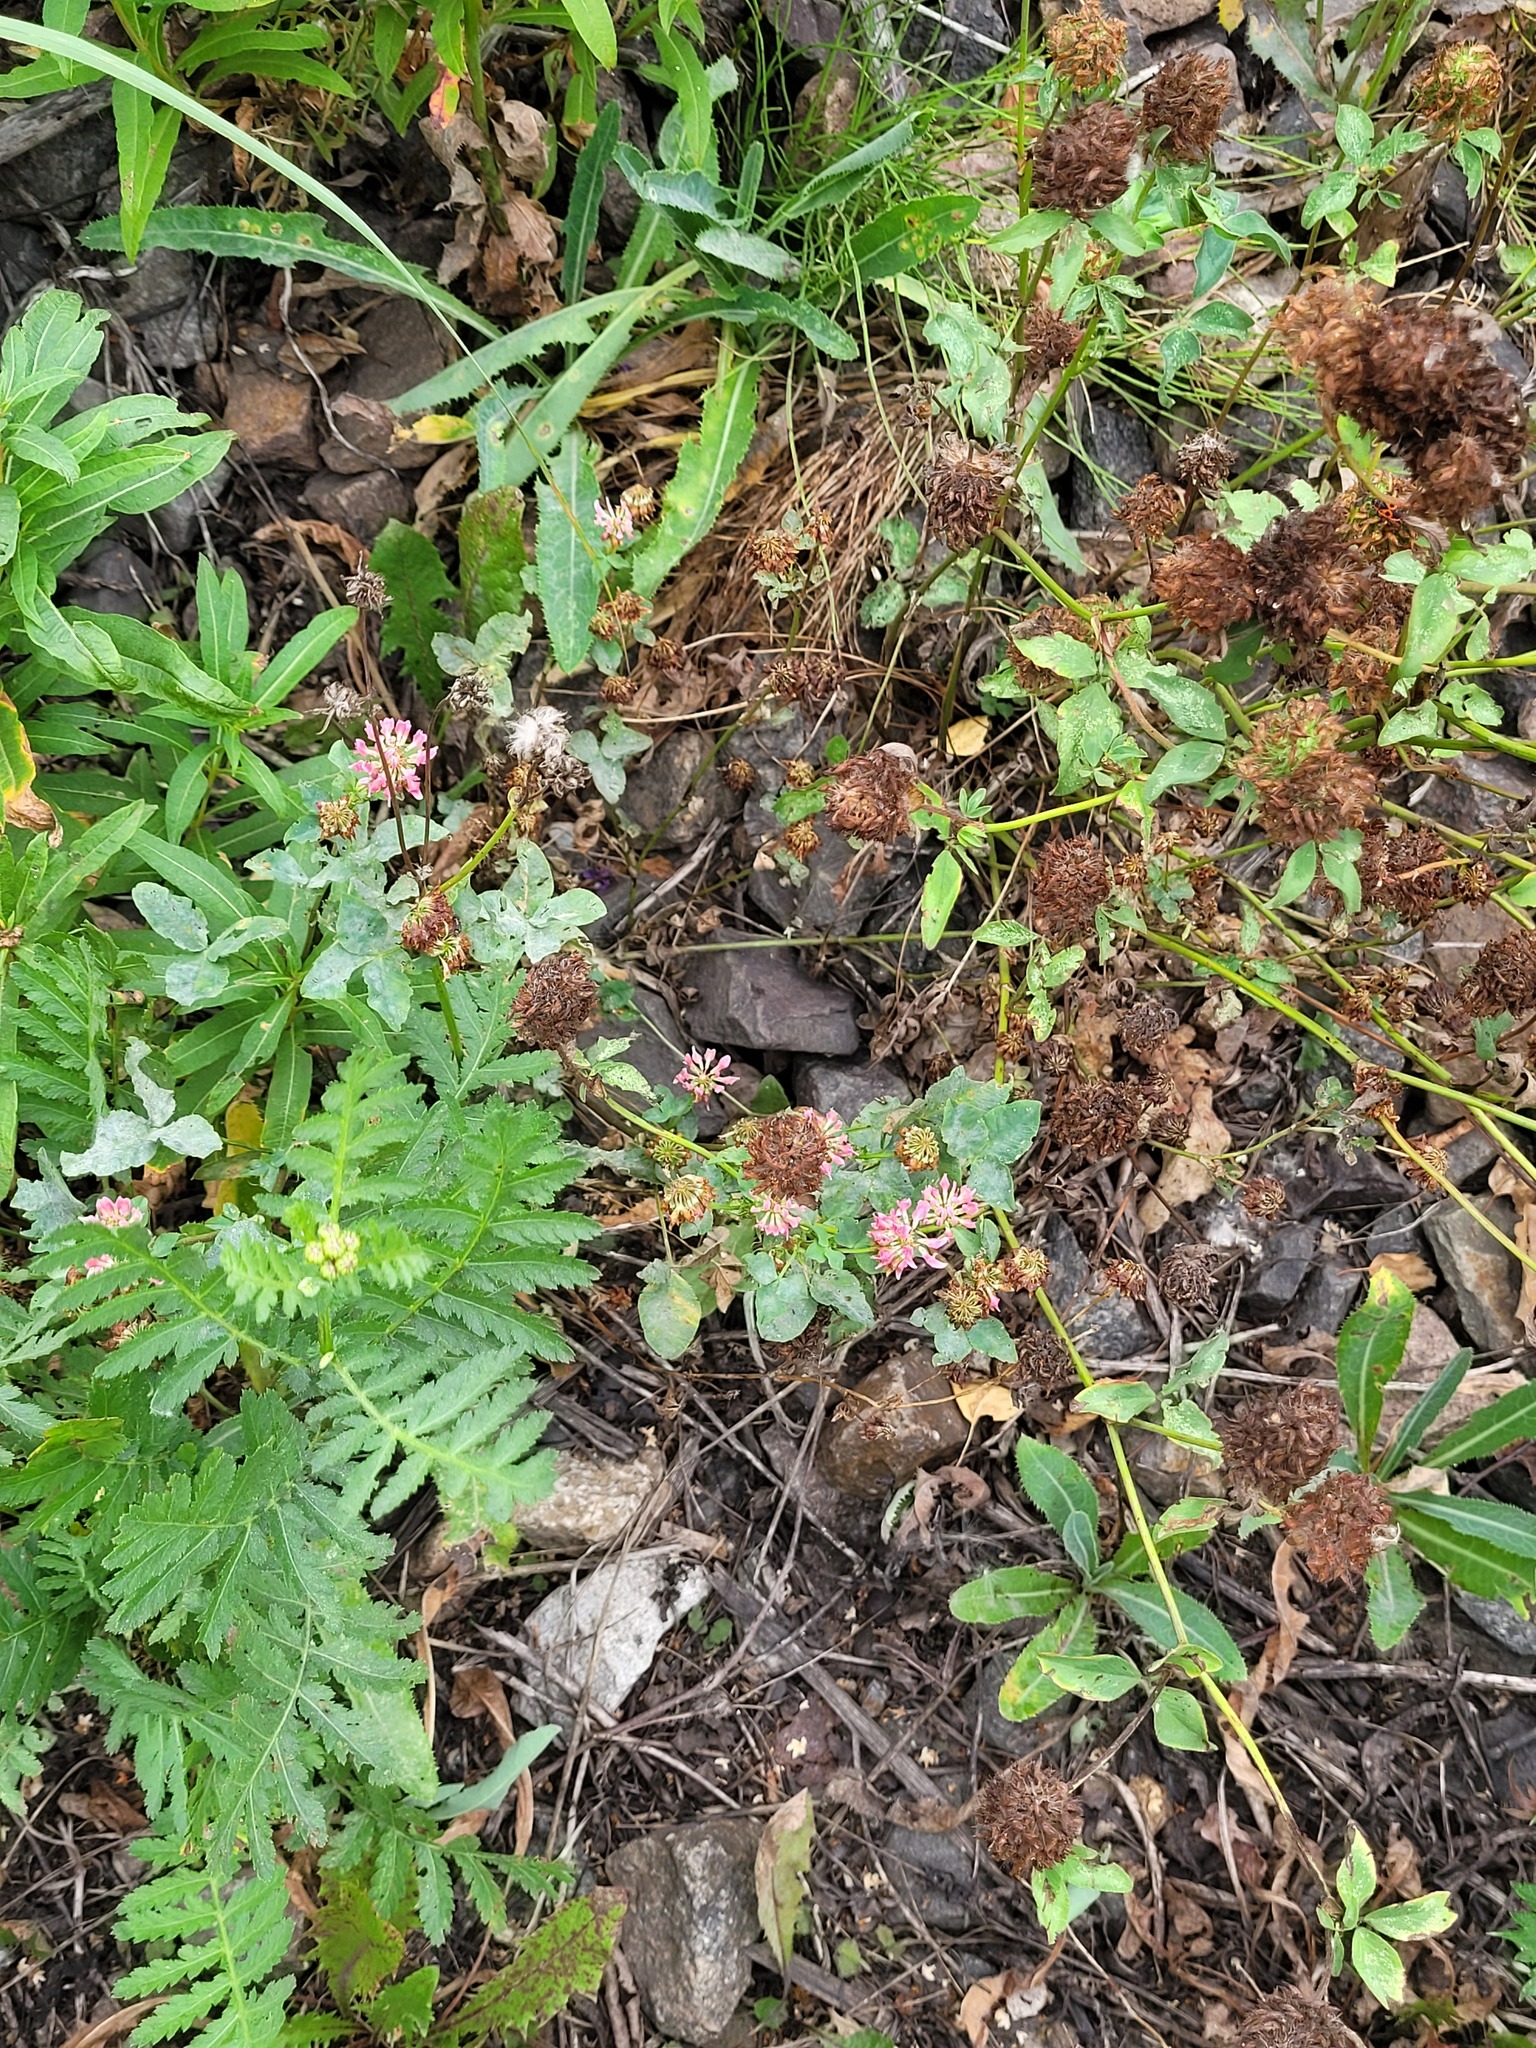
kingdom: Plantae
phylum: Tracheophyta
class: Magnoliopsida
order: Fabales
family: Fabaceae
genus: Trifolium
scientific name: Trifolium hybridum
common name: Alsike clover
